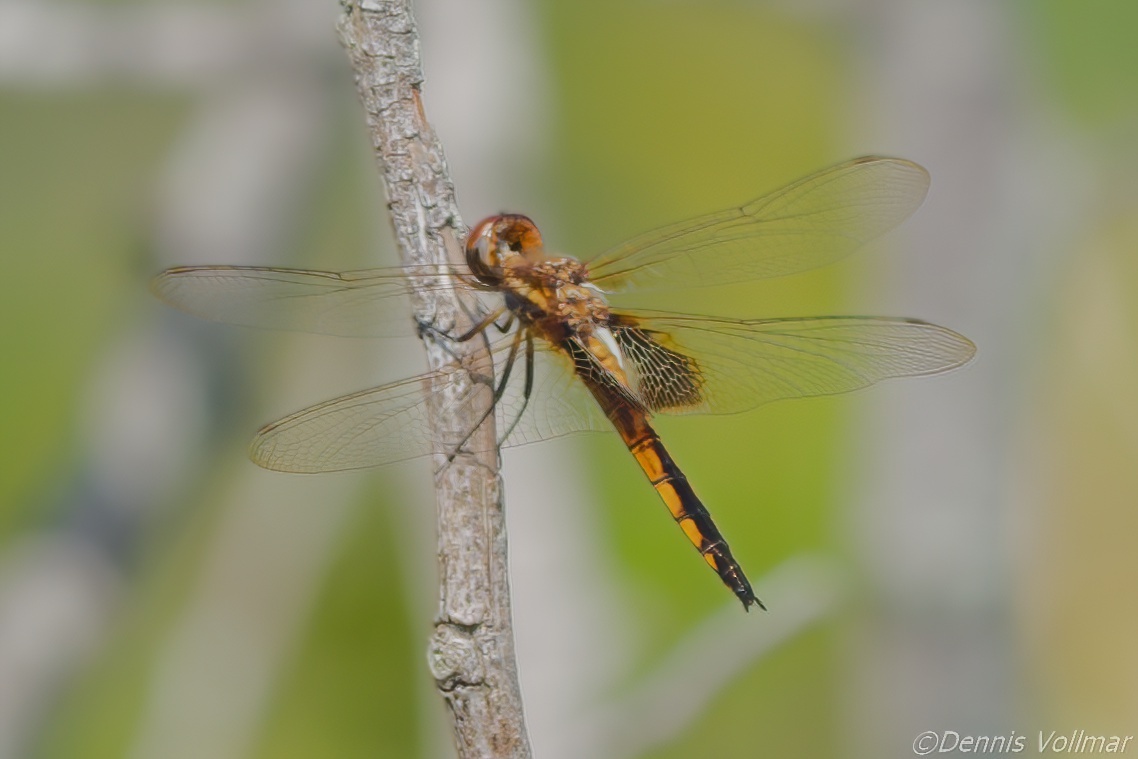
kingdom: Animalia
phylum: Arthropoda
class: Insecta
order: Odonata
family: Libellulidae
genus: Miathyria
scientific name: Miathyria marcella
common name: Hyacinth glider
